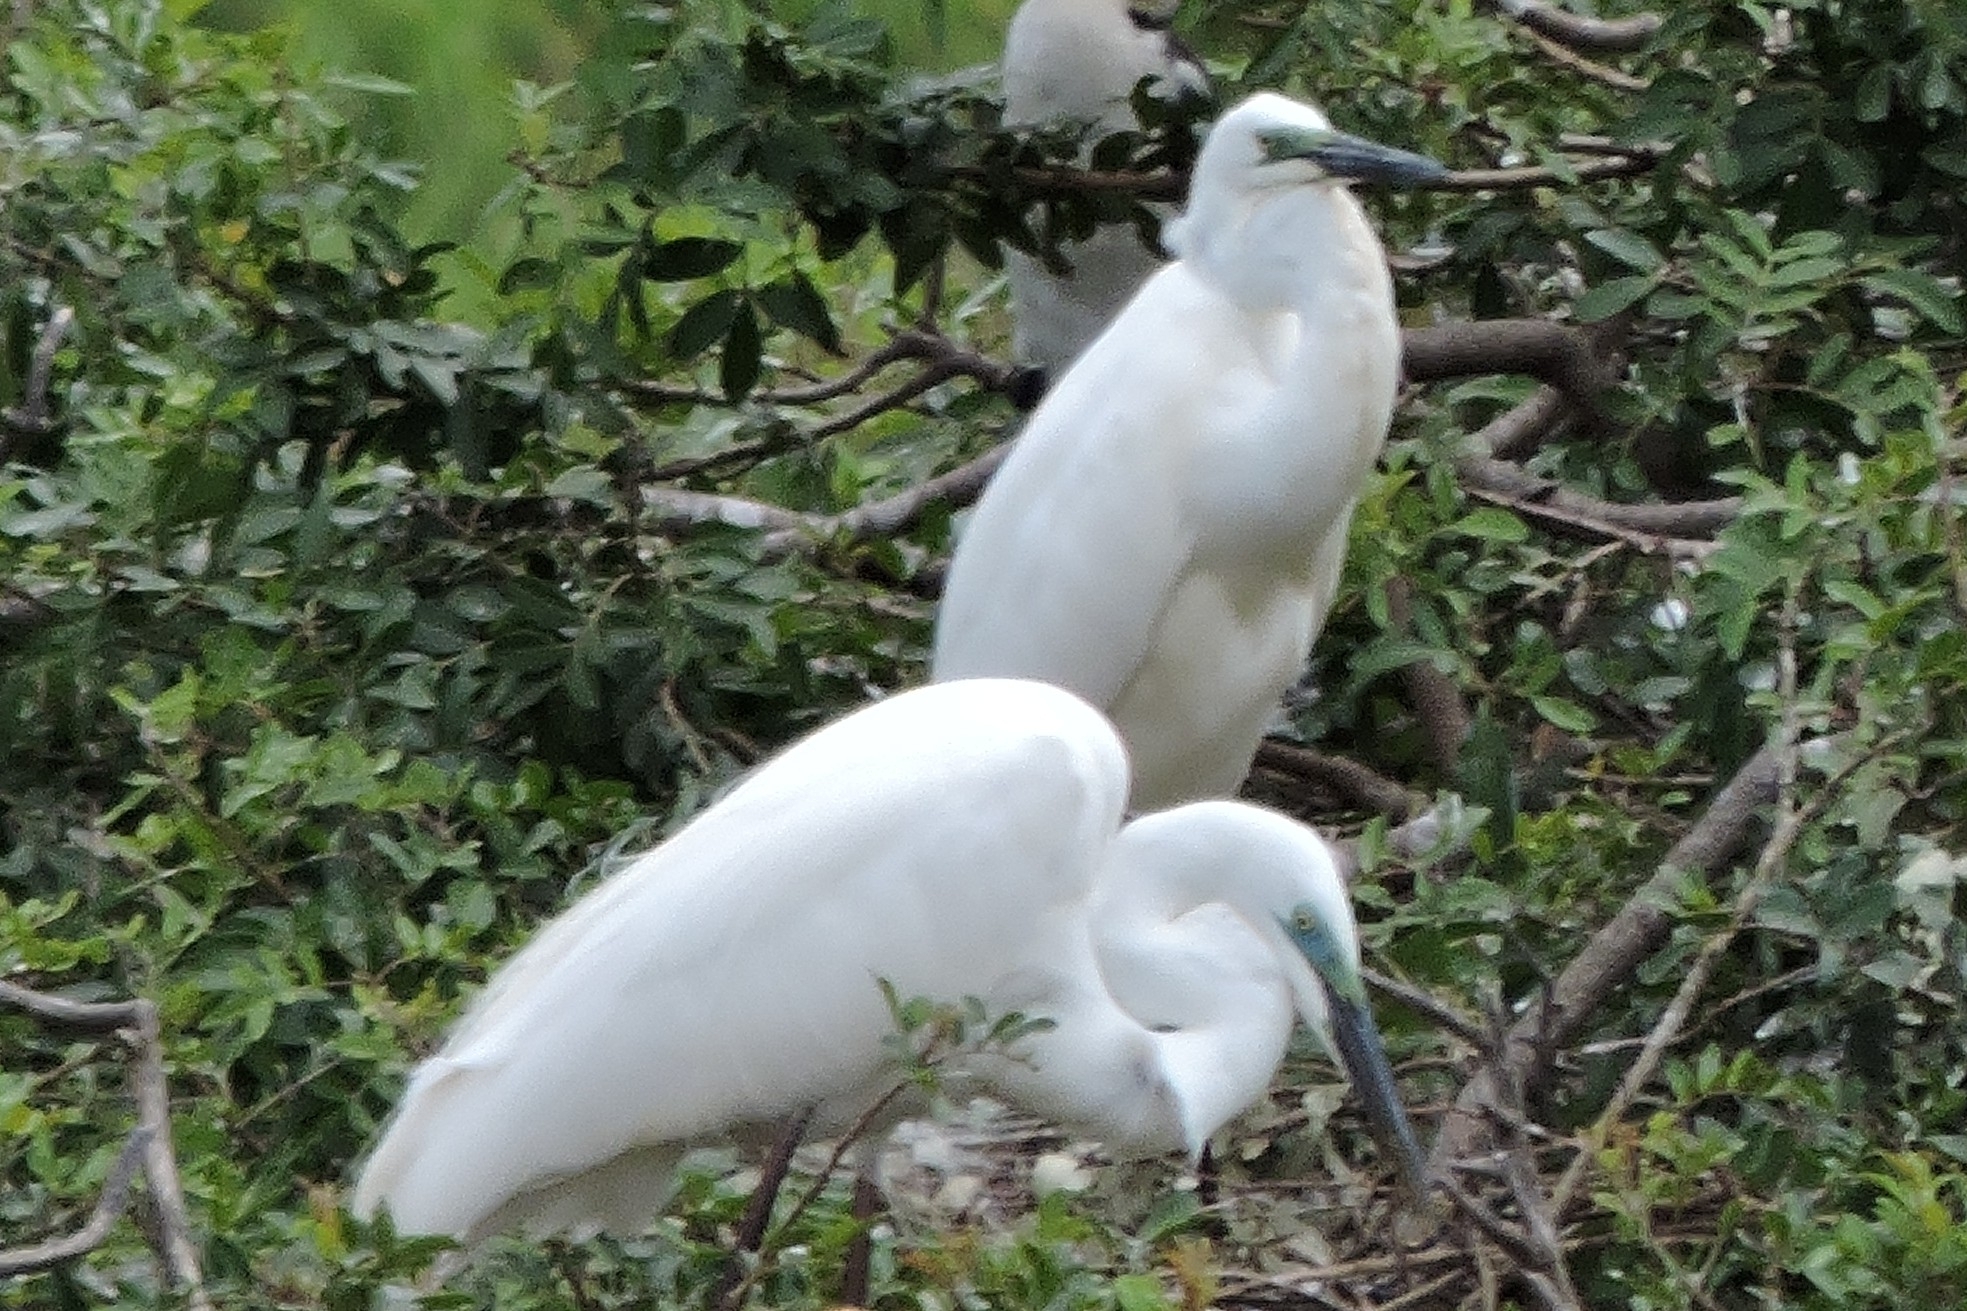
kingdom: Animalia
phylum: Chordata
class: Aves
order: Pelecaniformes
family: Ardeidae
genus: Ardea
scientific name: Ardea alba
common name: Great egret
